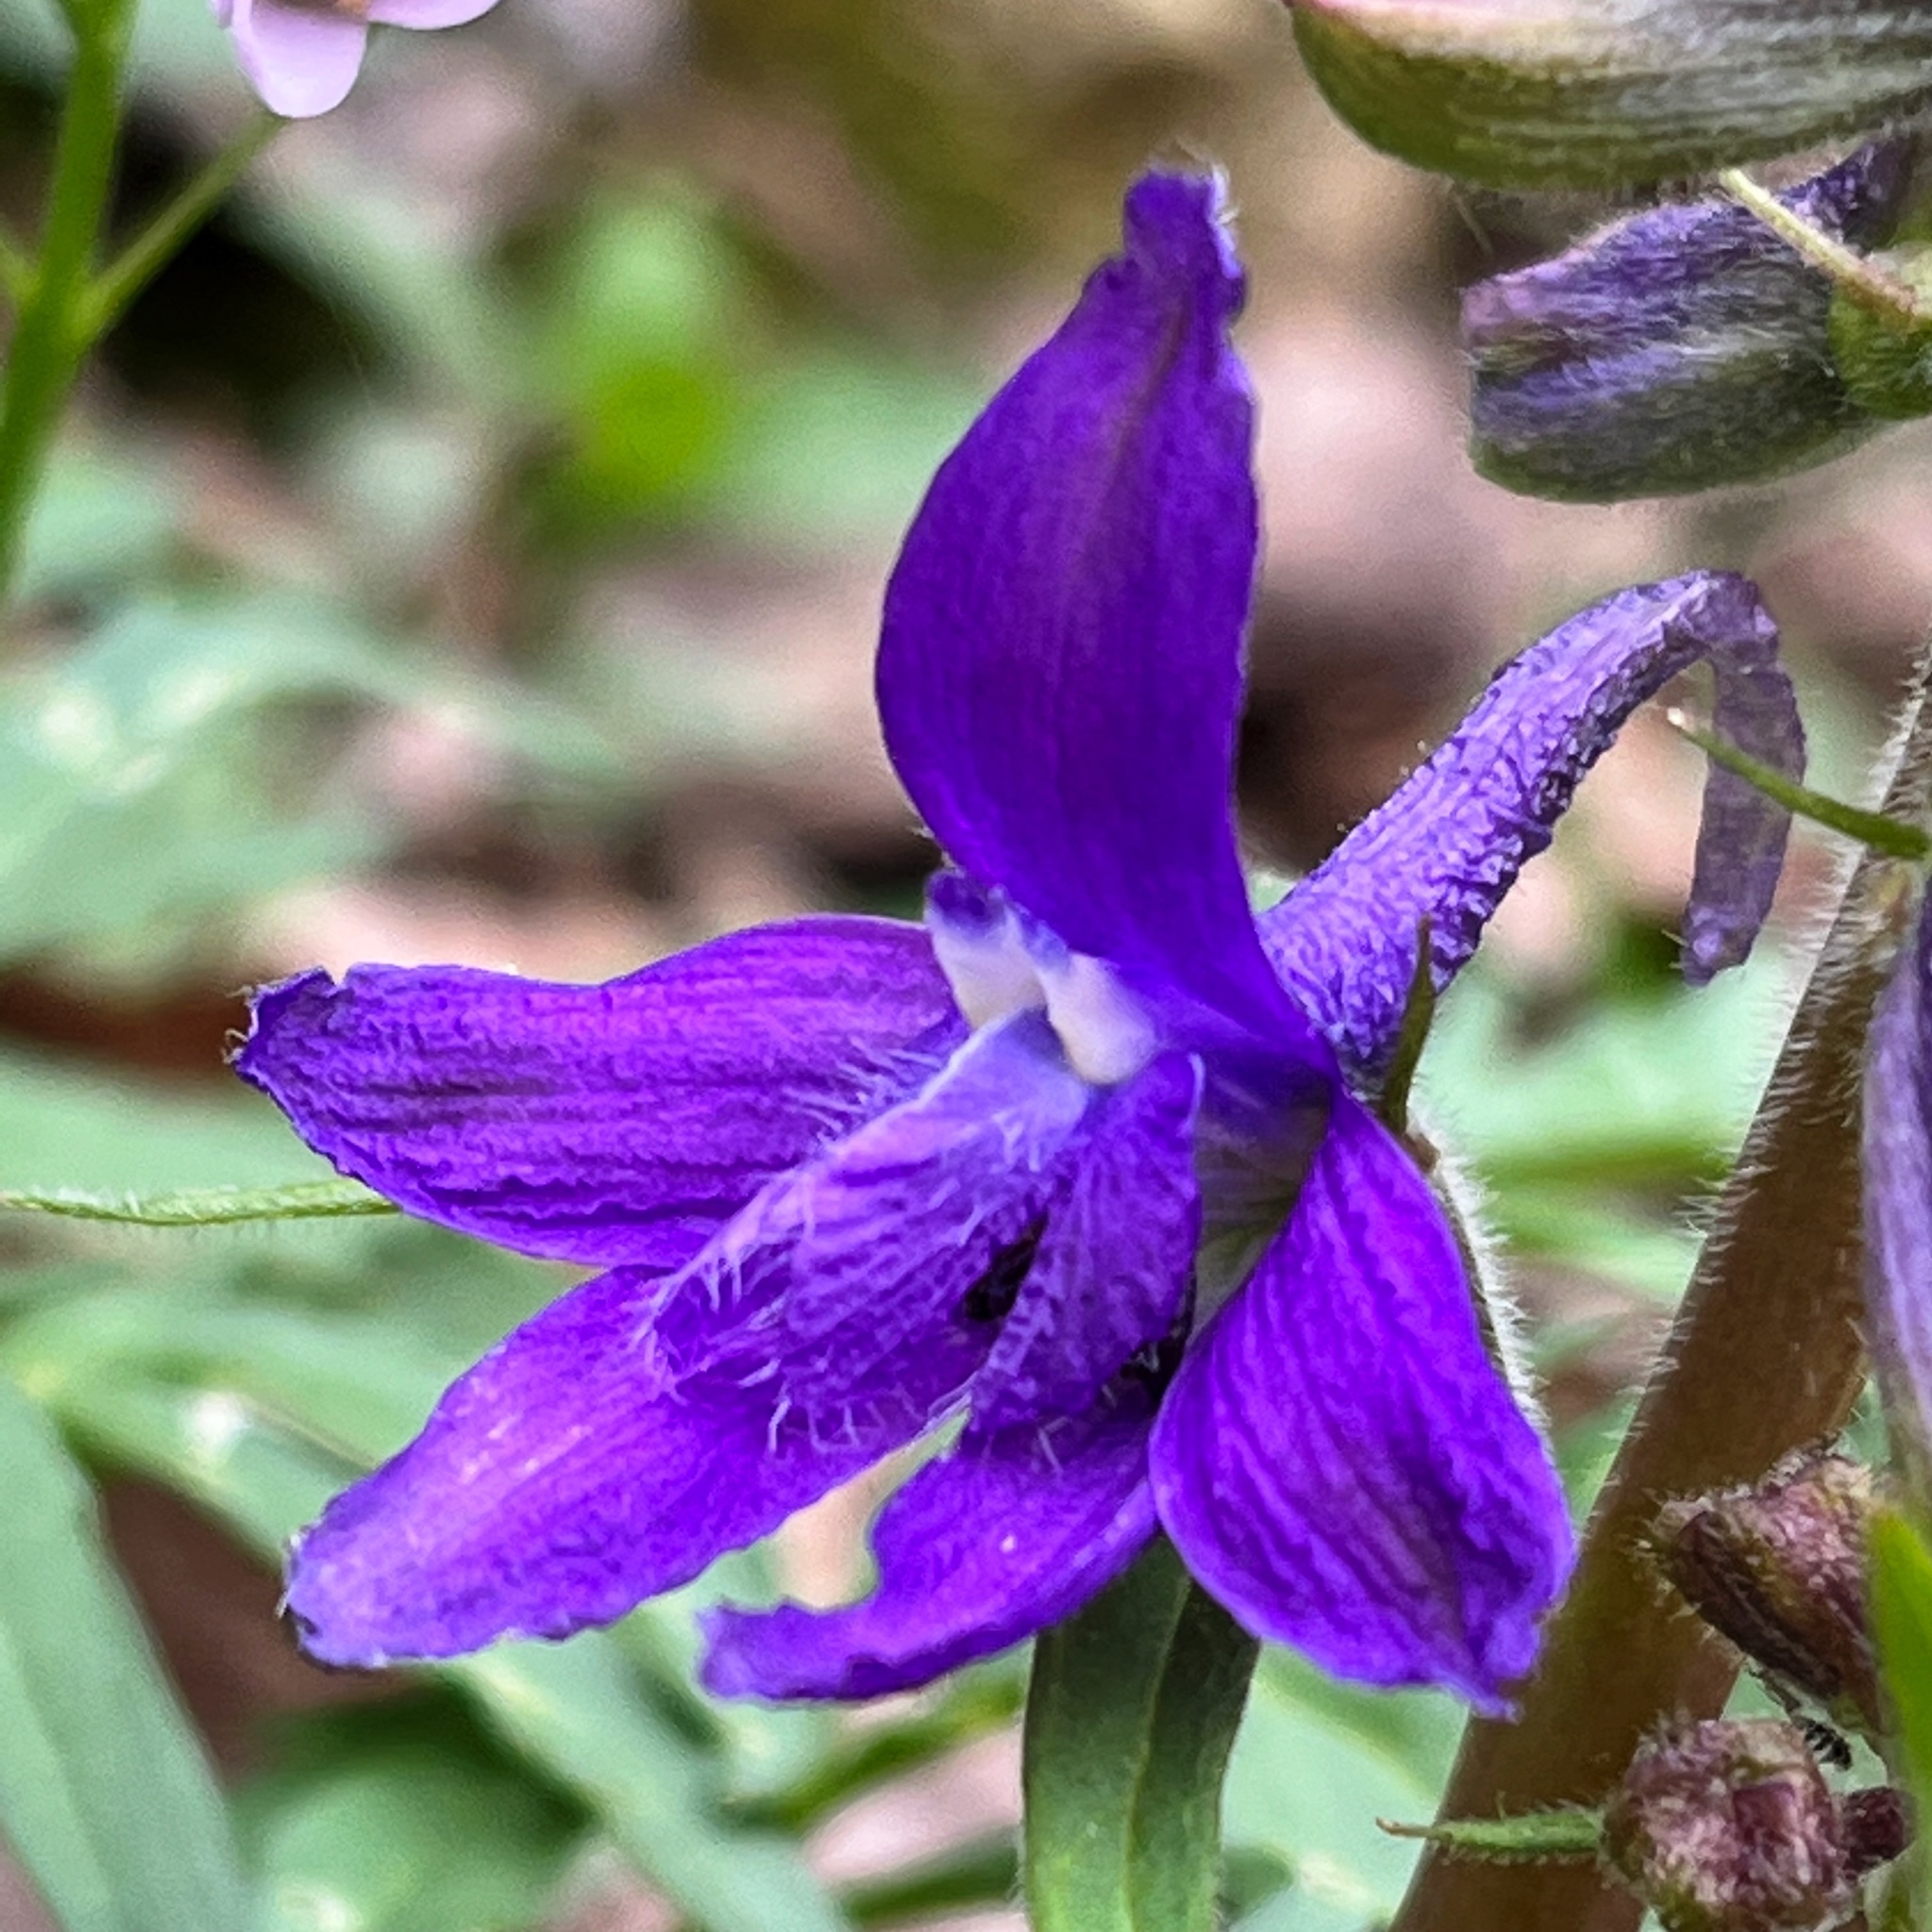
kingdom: Plantae
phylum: Tracheophyta
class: Magnoliopsida
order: Ranunculales
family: Ranunculaceae
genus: Delphinium
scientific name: Delphinium tricorne
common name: Dwarf larkspur
